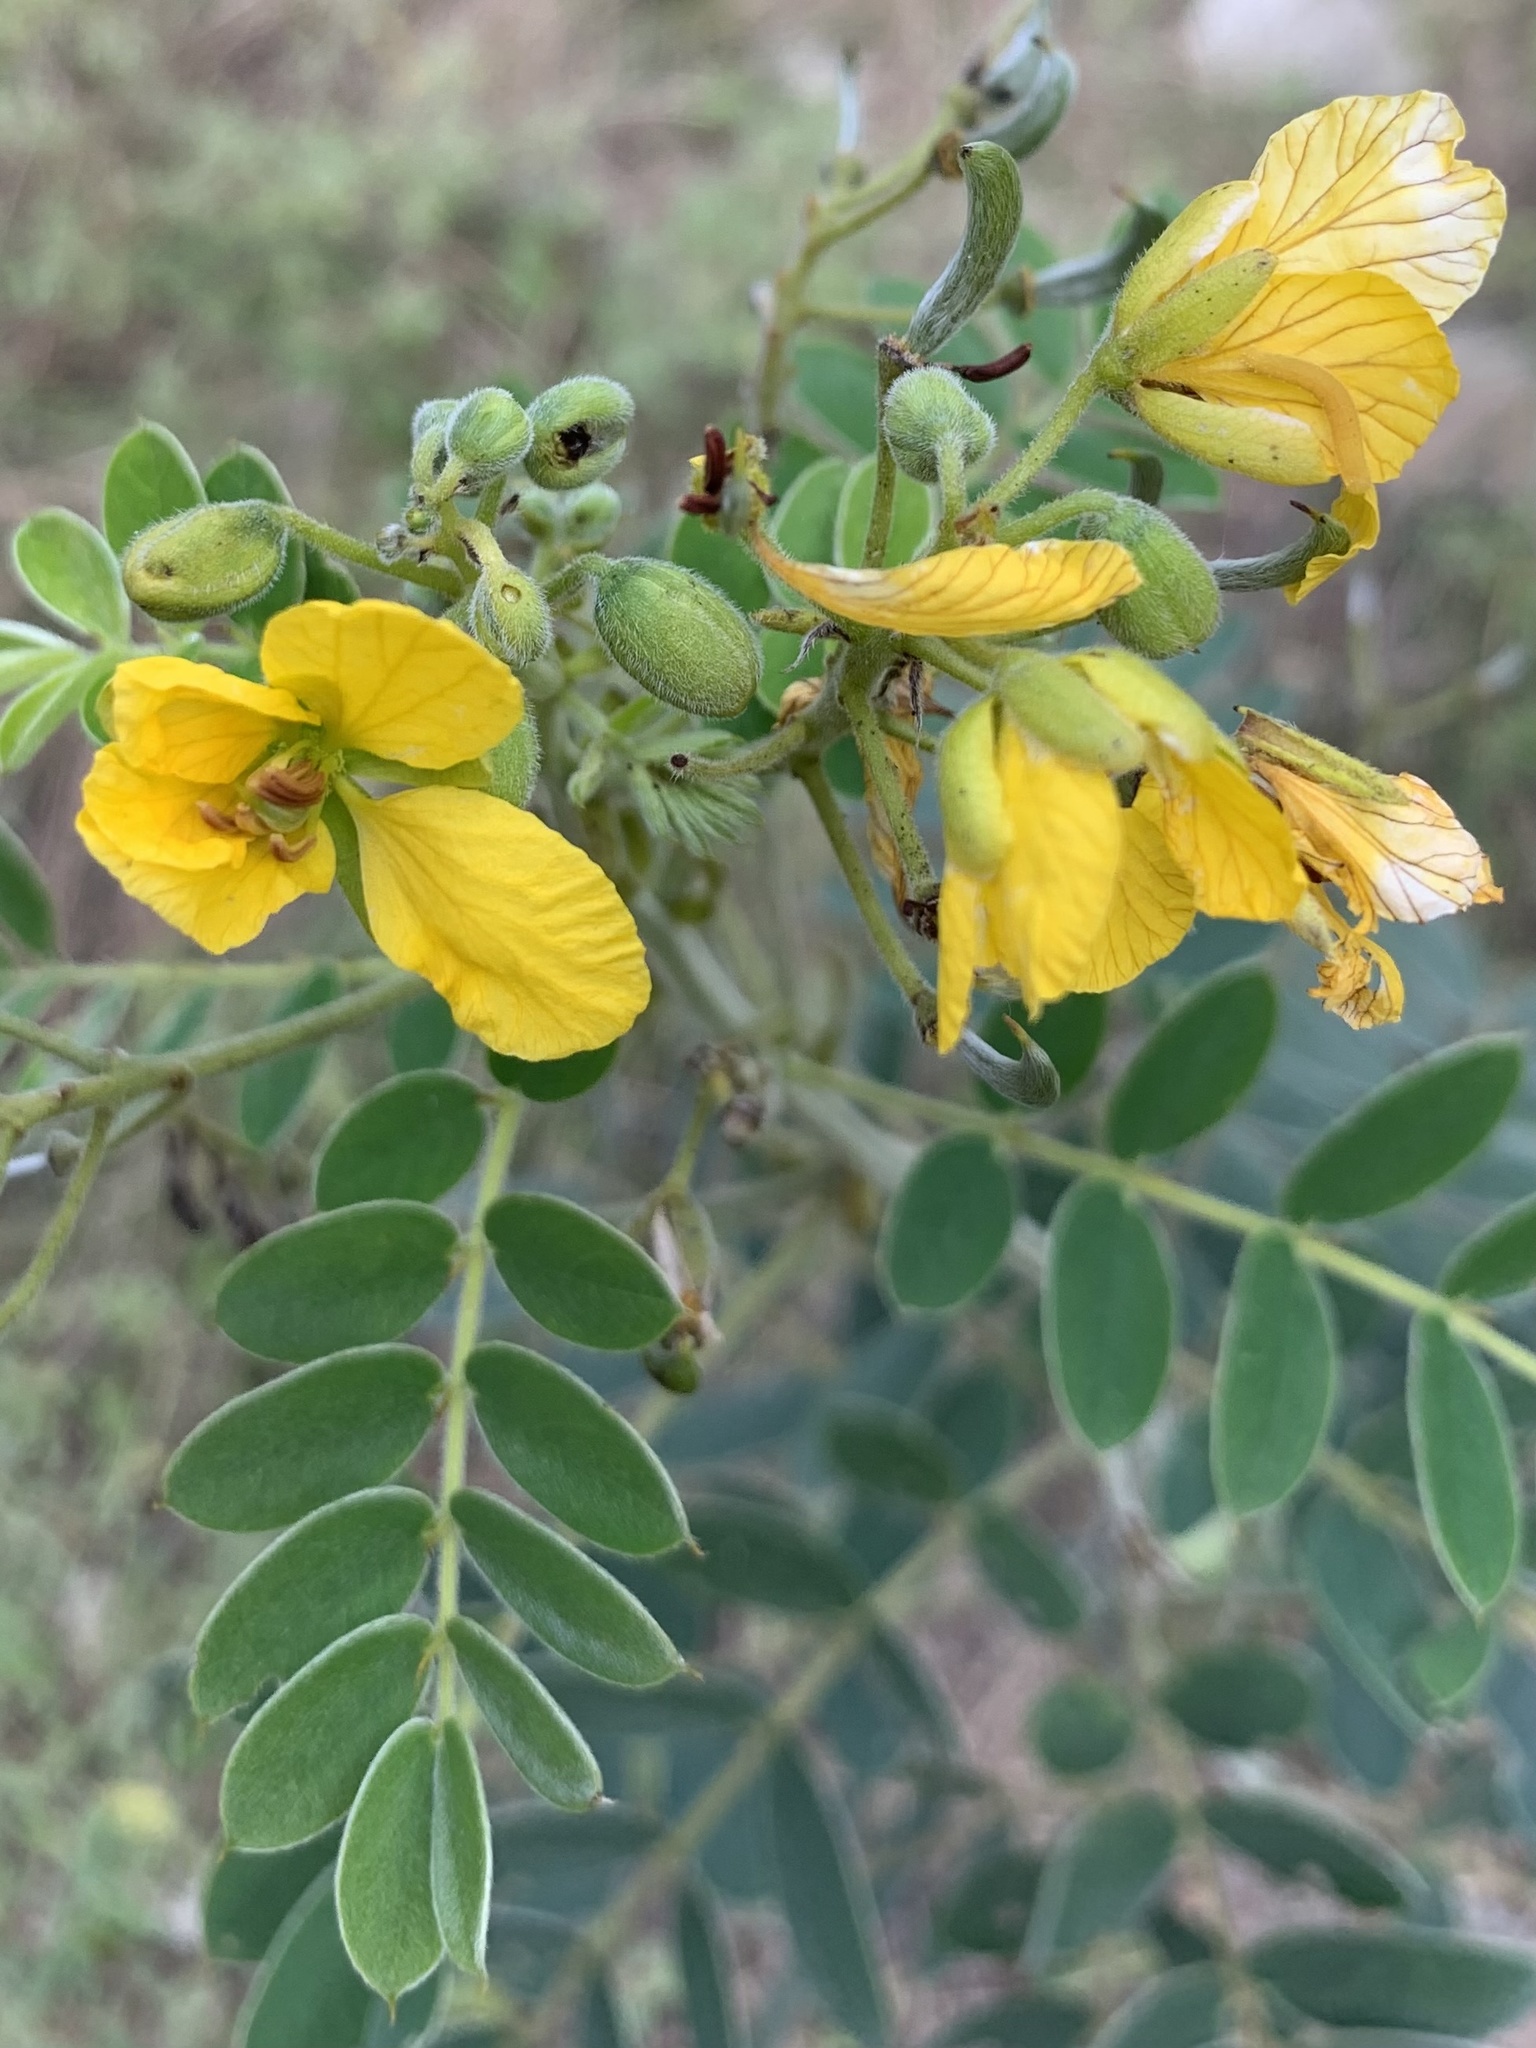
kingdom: Plantae
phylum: Tracheophyta
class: Magnoliopsida
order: Fabales
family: Fabaceae
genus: Senna
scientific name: Senna lindheimeriana
